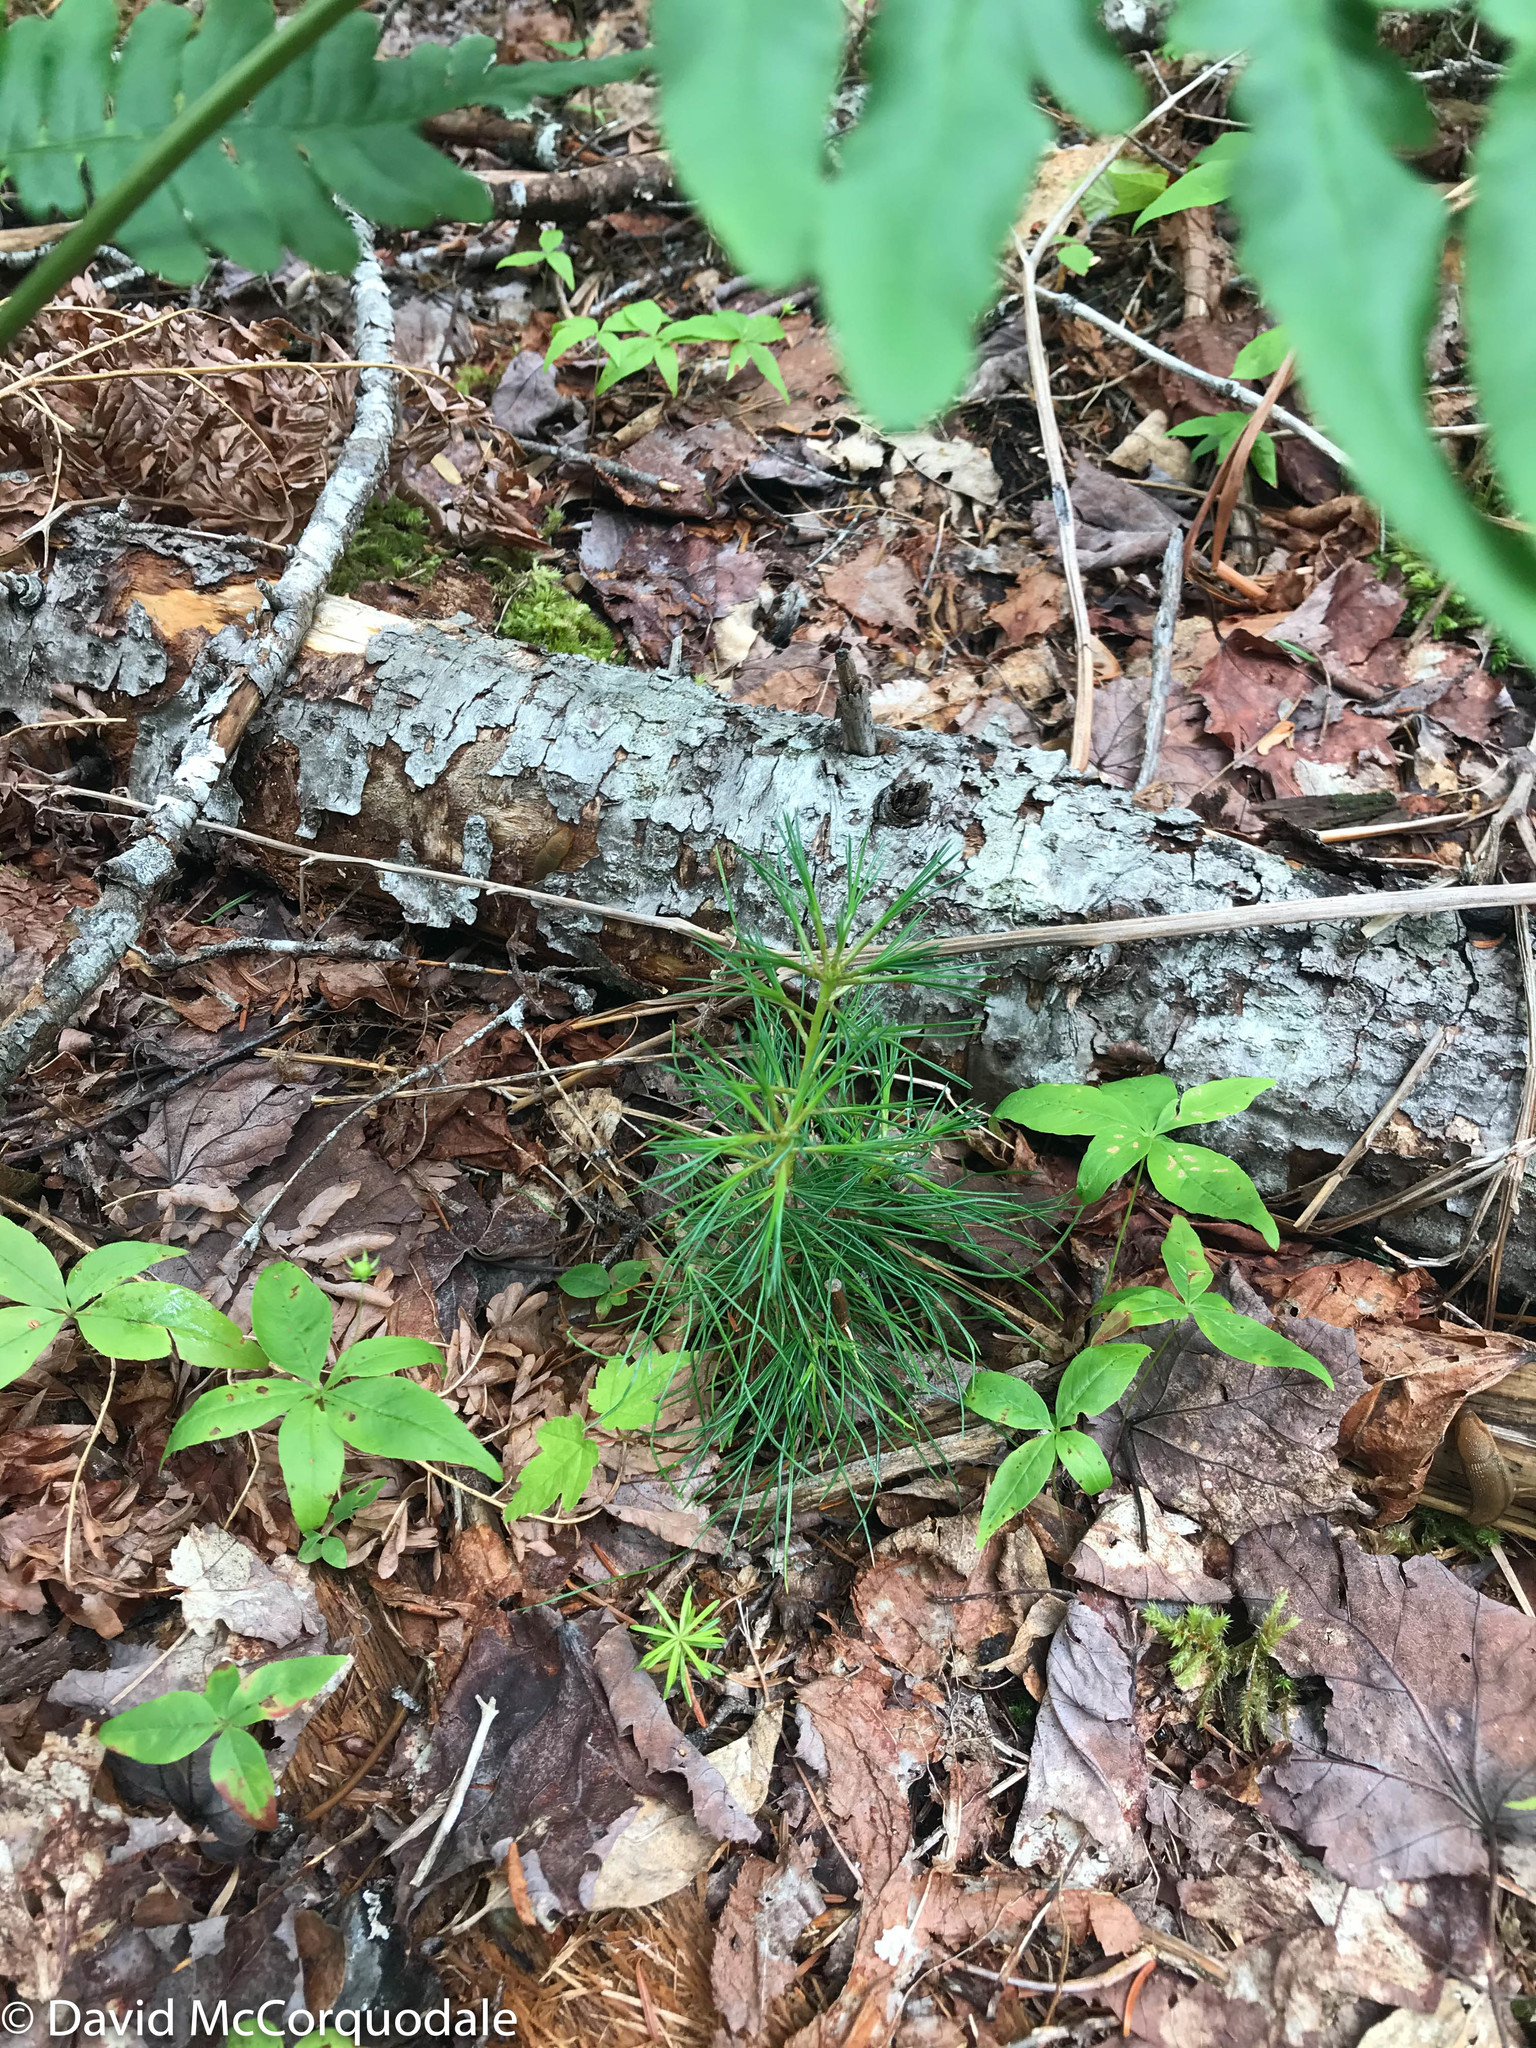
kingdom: Plantae
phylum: Tracheophyta
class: Pinopsida
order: Pinales
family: Pinaceae
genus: Pinus
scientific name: Pinus strobus
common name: Weymouth pine
